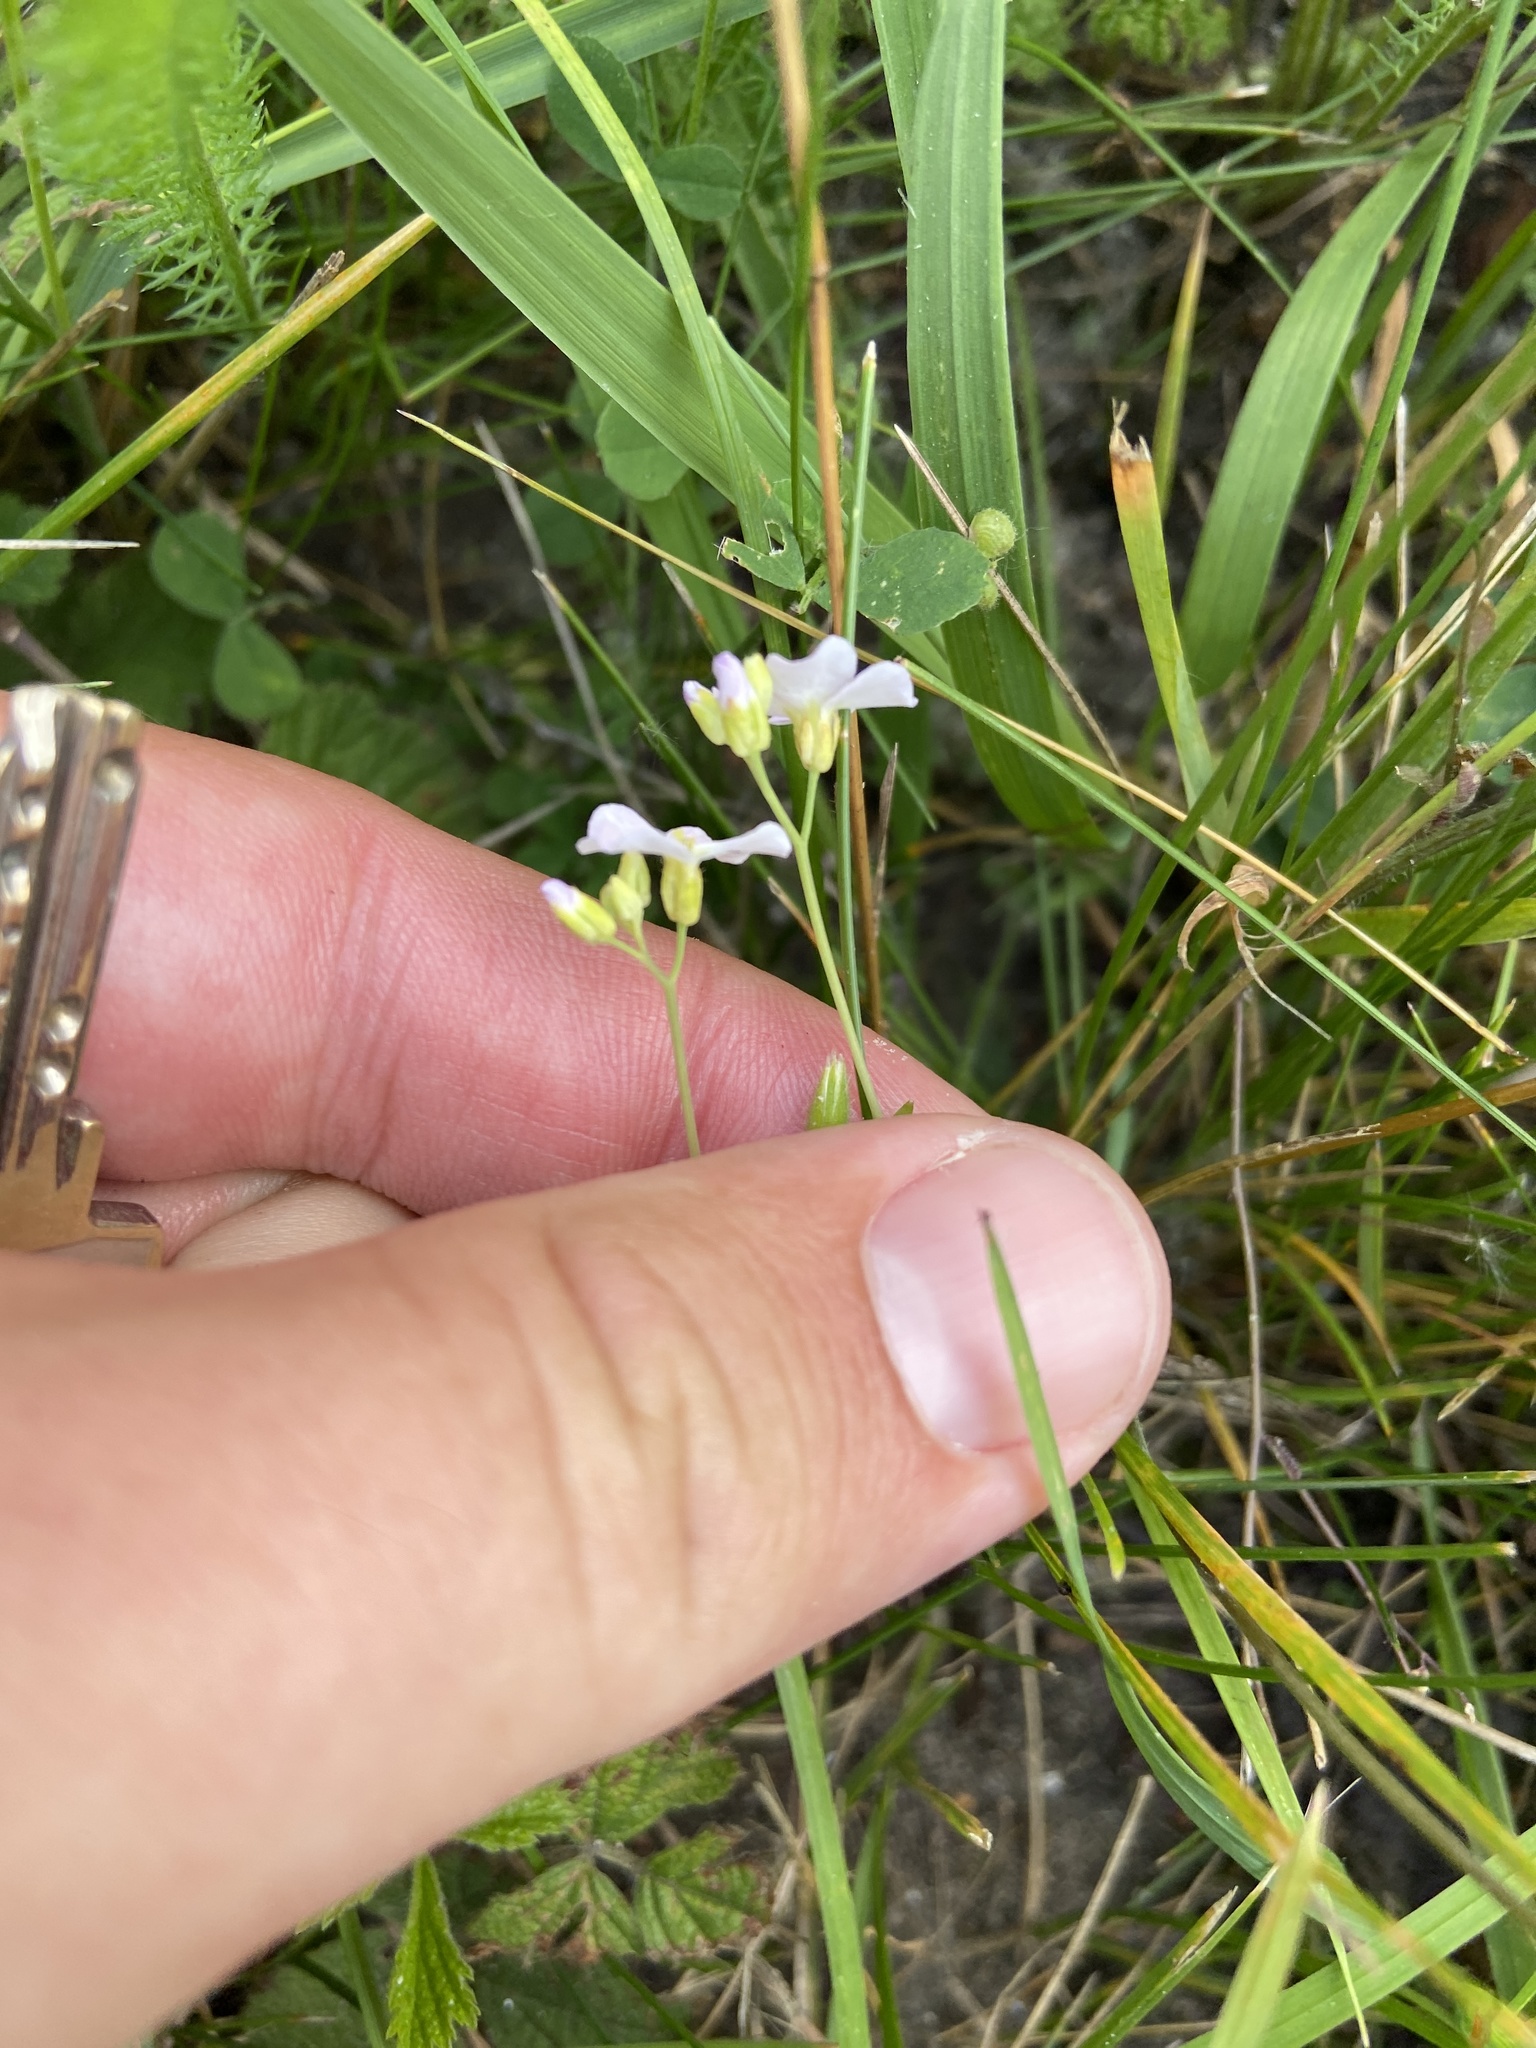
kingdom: Plantae
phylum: Tracheophyta
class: Magnoliopsida
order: Brassicales
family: Brassicaceae
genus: Cardamine
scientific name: Cardamine pratensis
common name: Cuckoo flower
